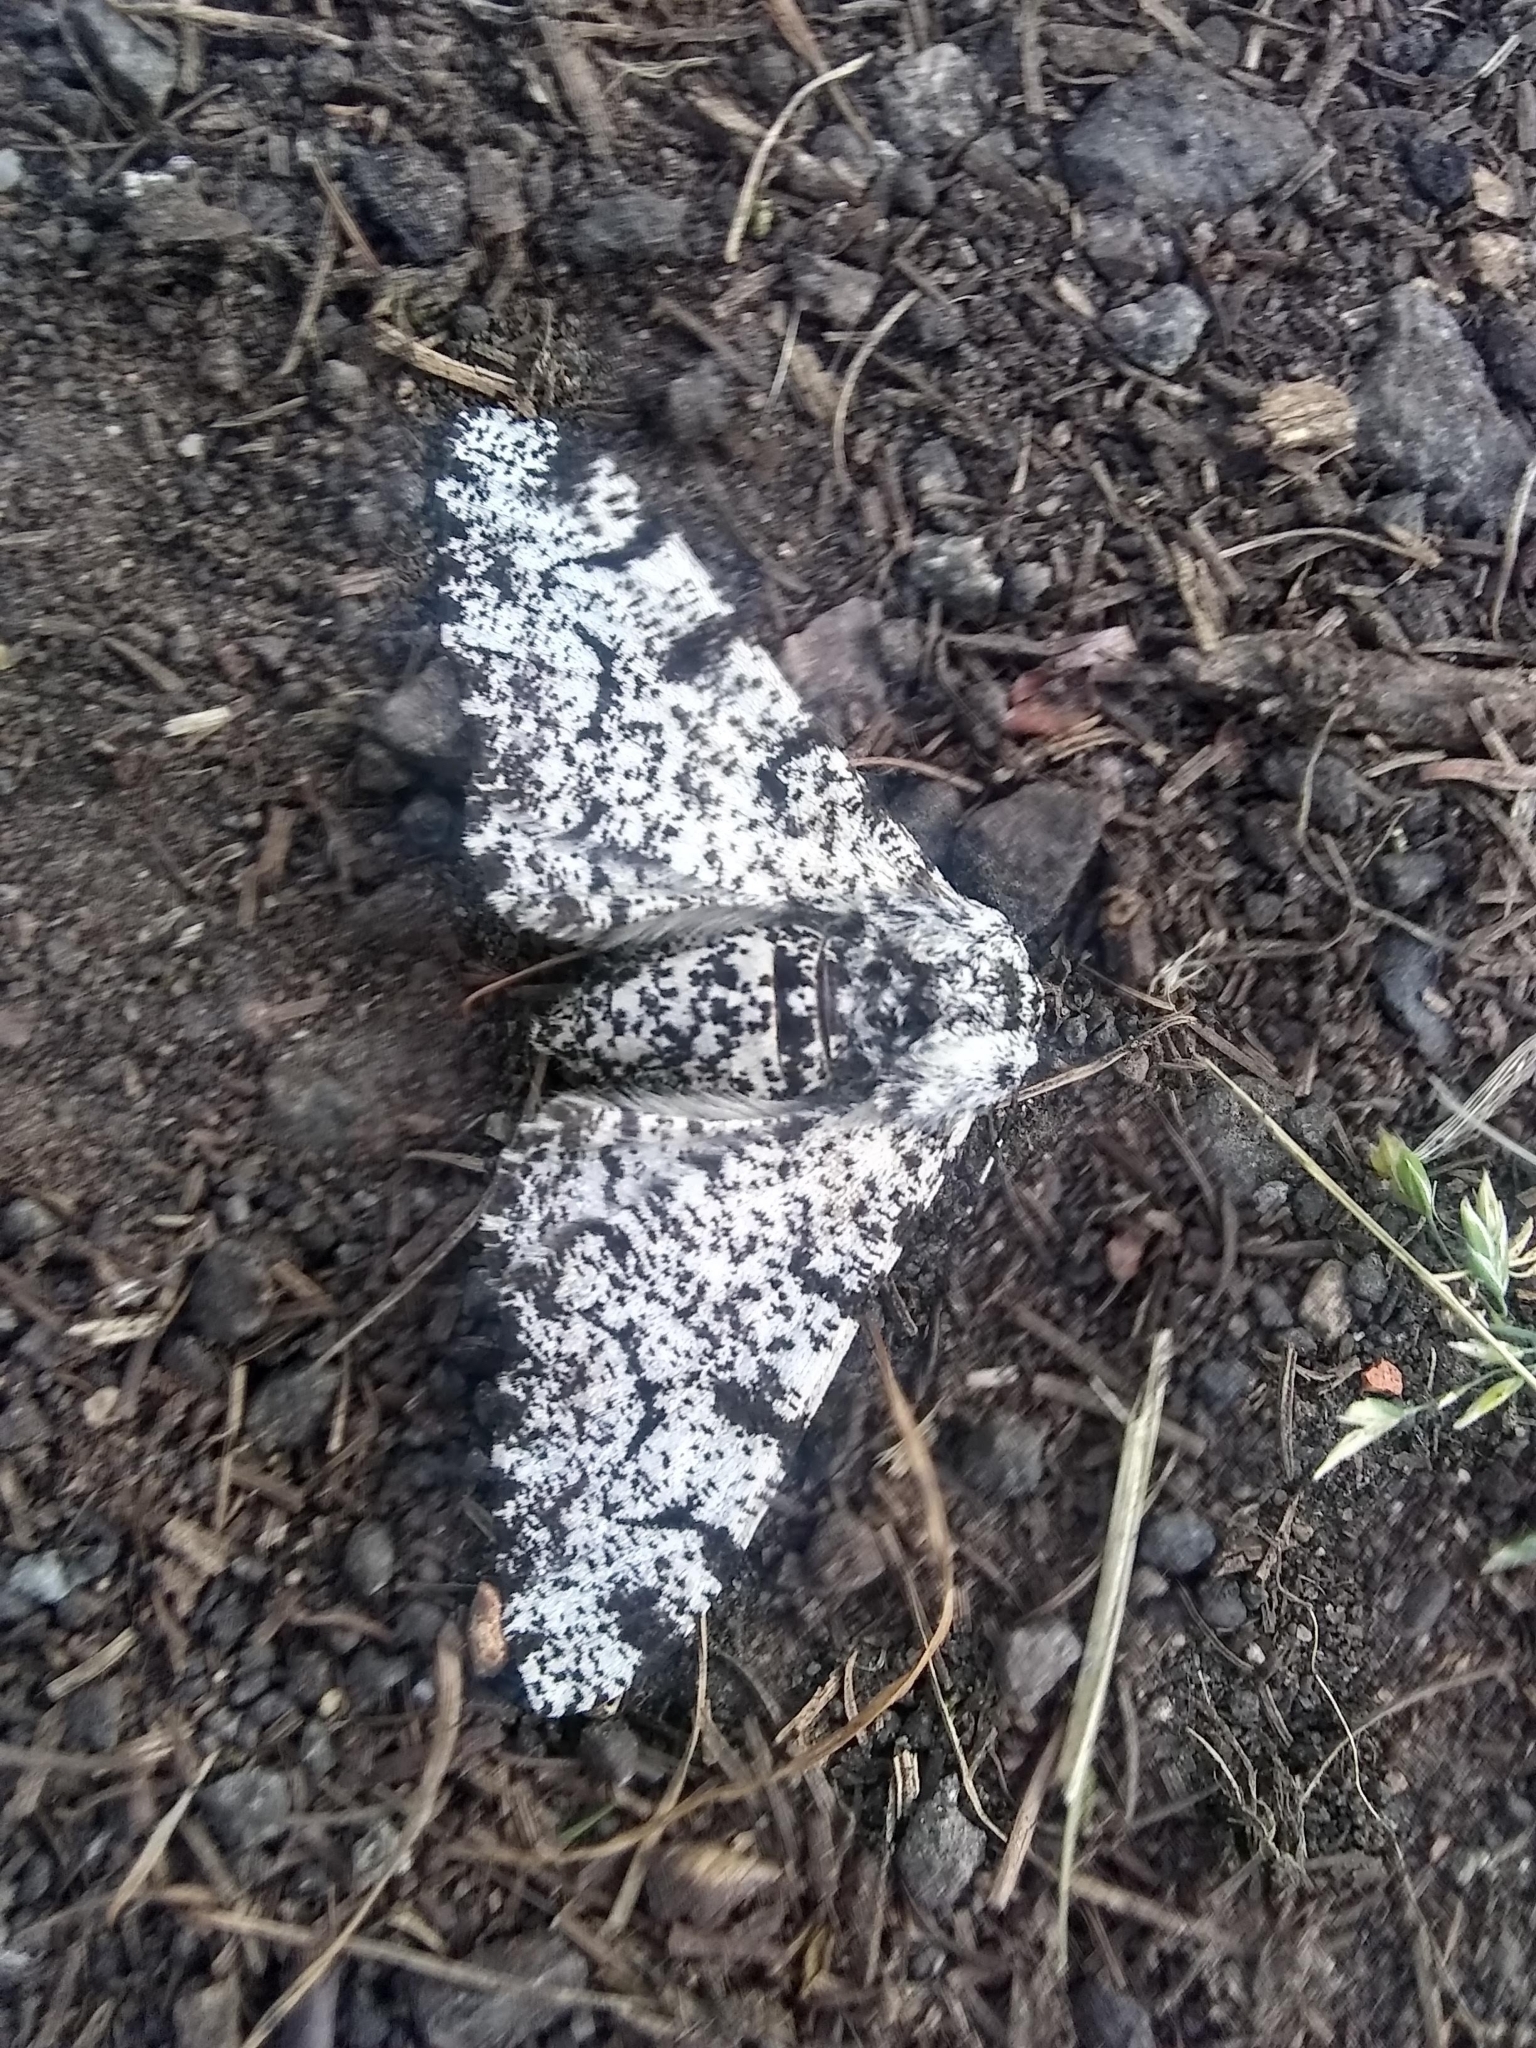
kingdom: Animalia
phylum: Arthropoda
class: Insecta
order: Lepidoptera
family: Geometridae
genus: Biston
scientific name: Biston betularia
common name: Peppered moth
